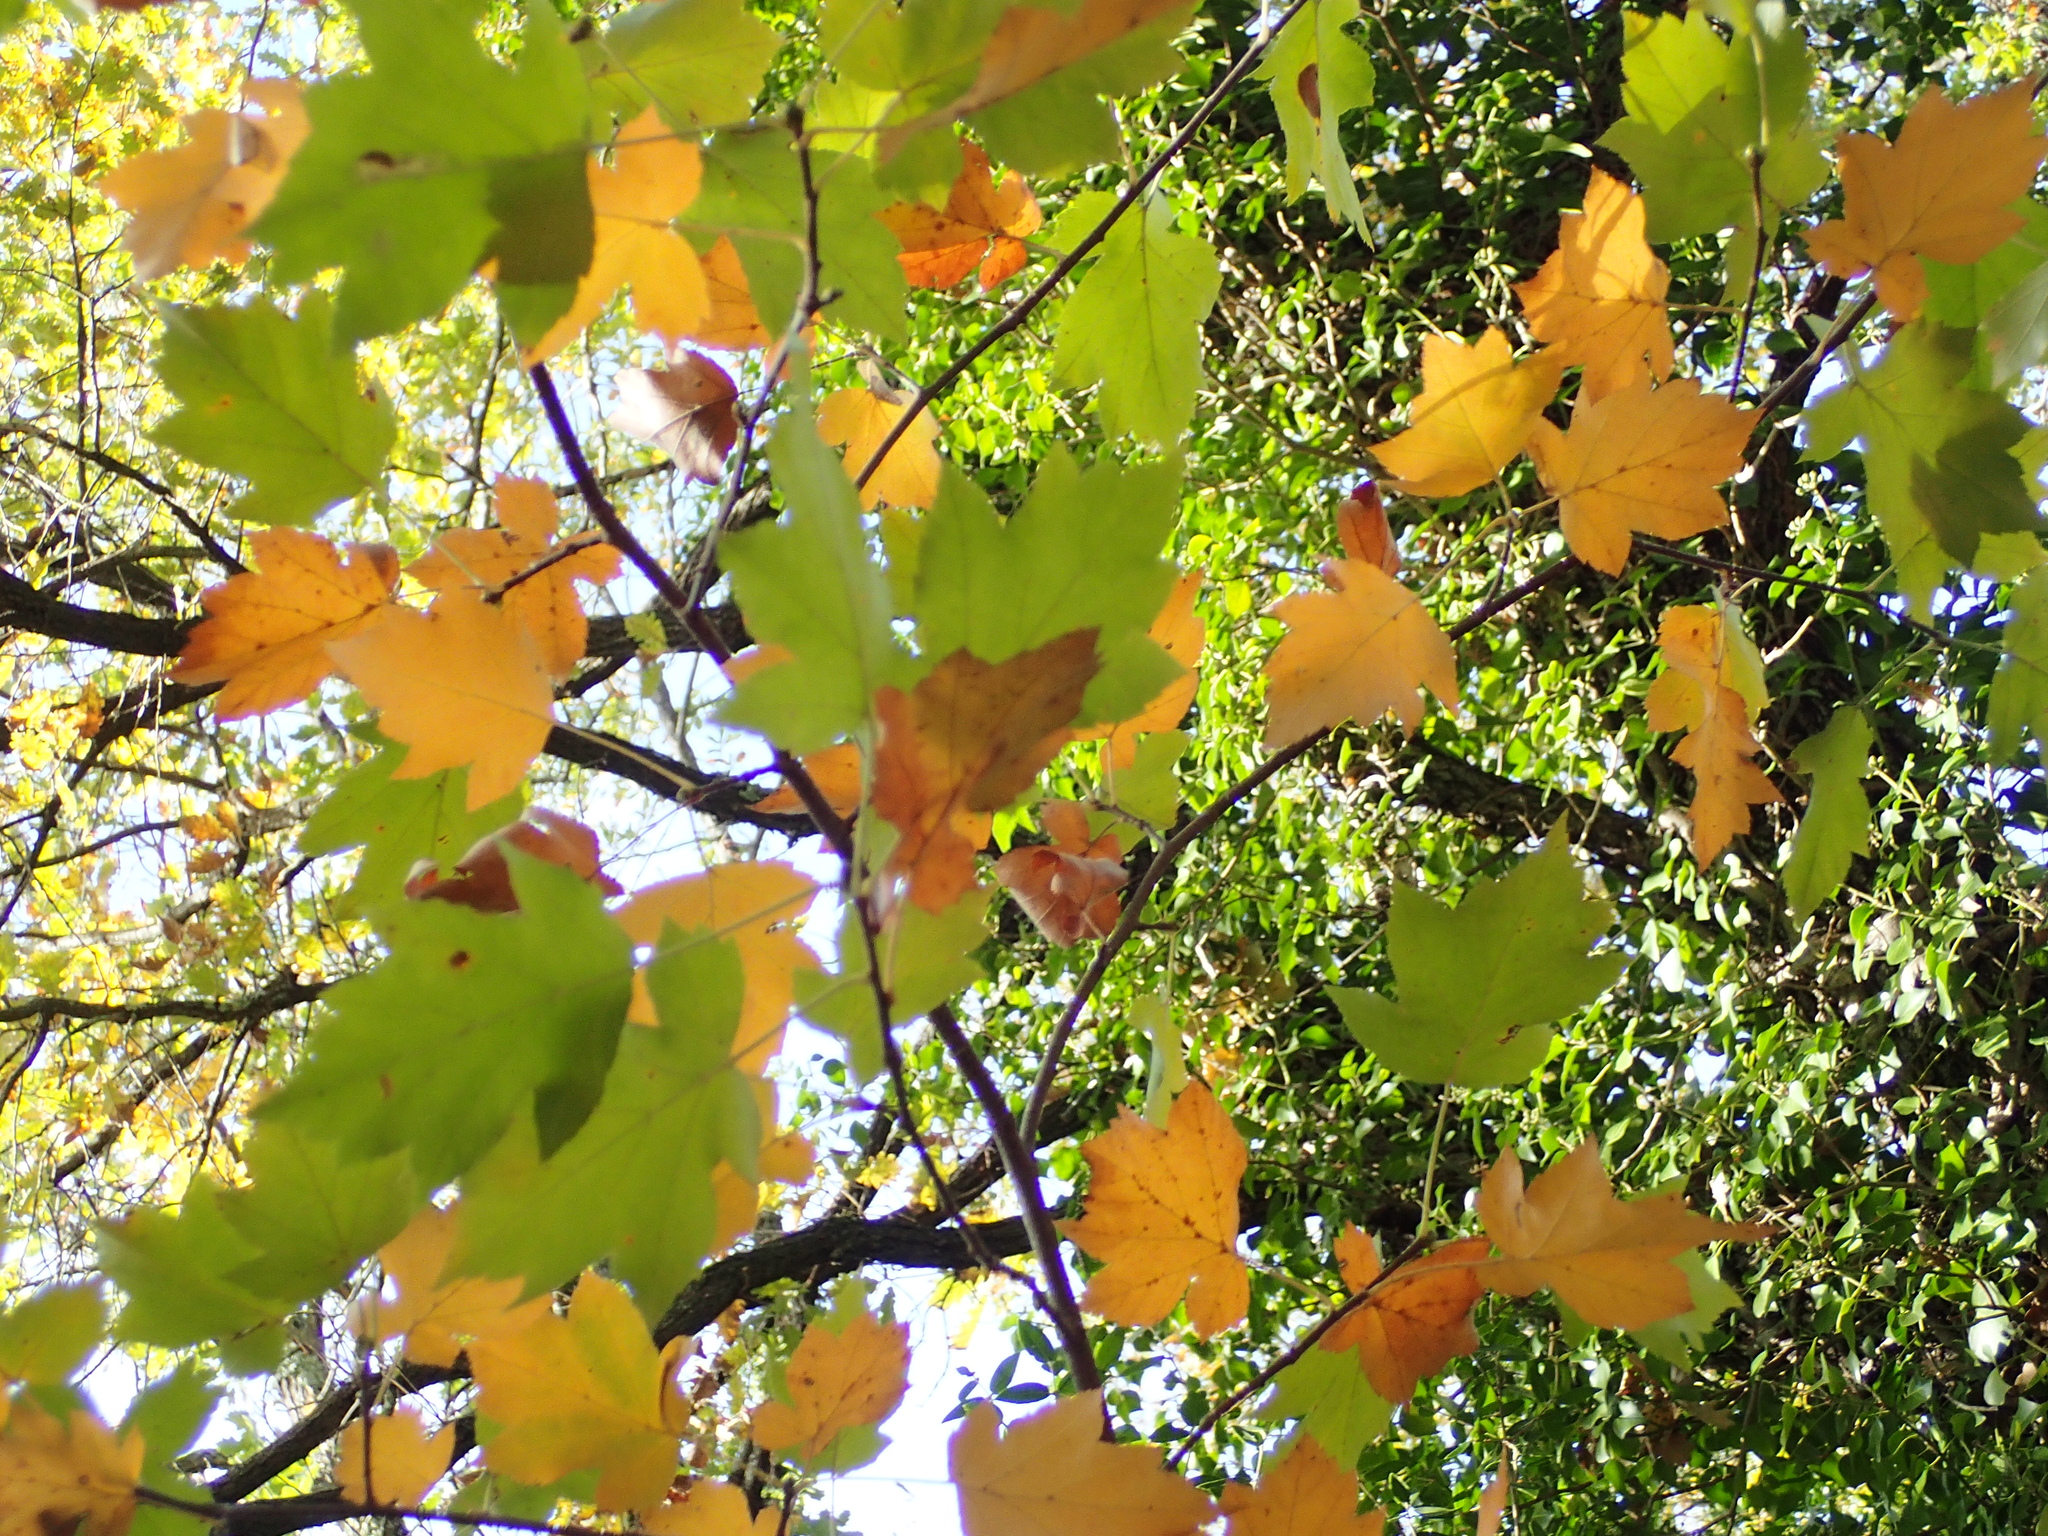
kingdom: Plantae
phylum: Tracheophyta
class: Magnoliopsida
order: Rosales
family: Rosaceae
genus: Torminalis
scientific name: Torminalis glaberrima
